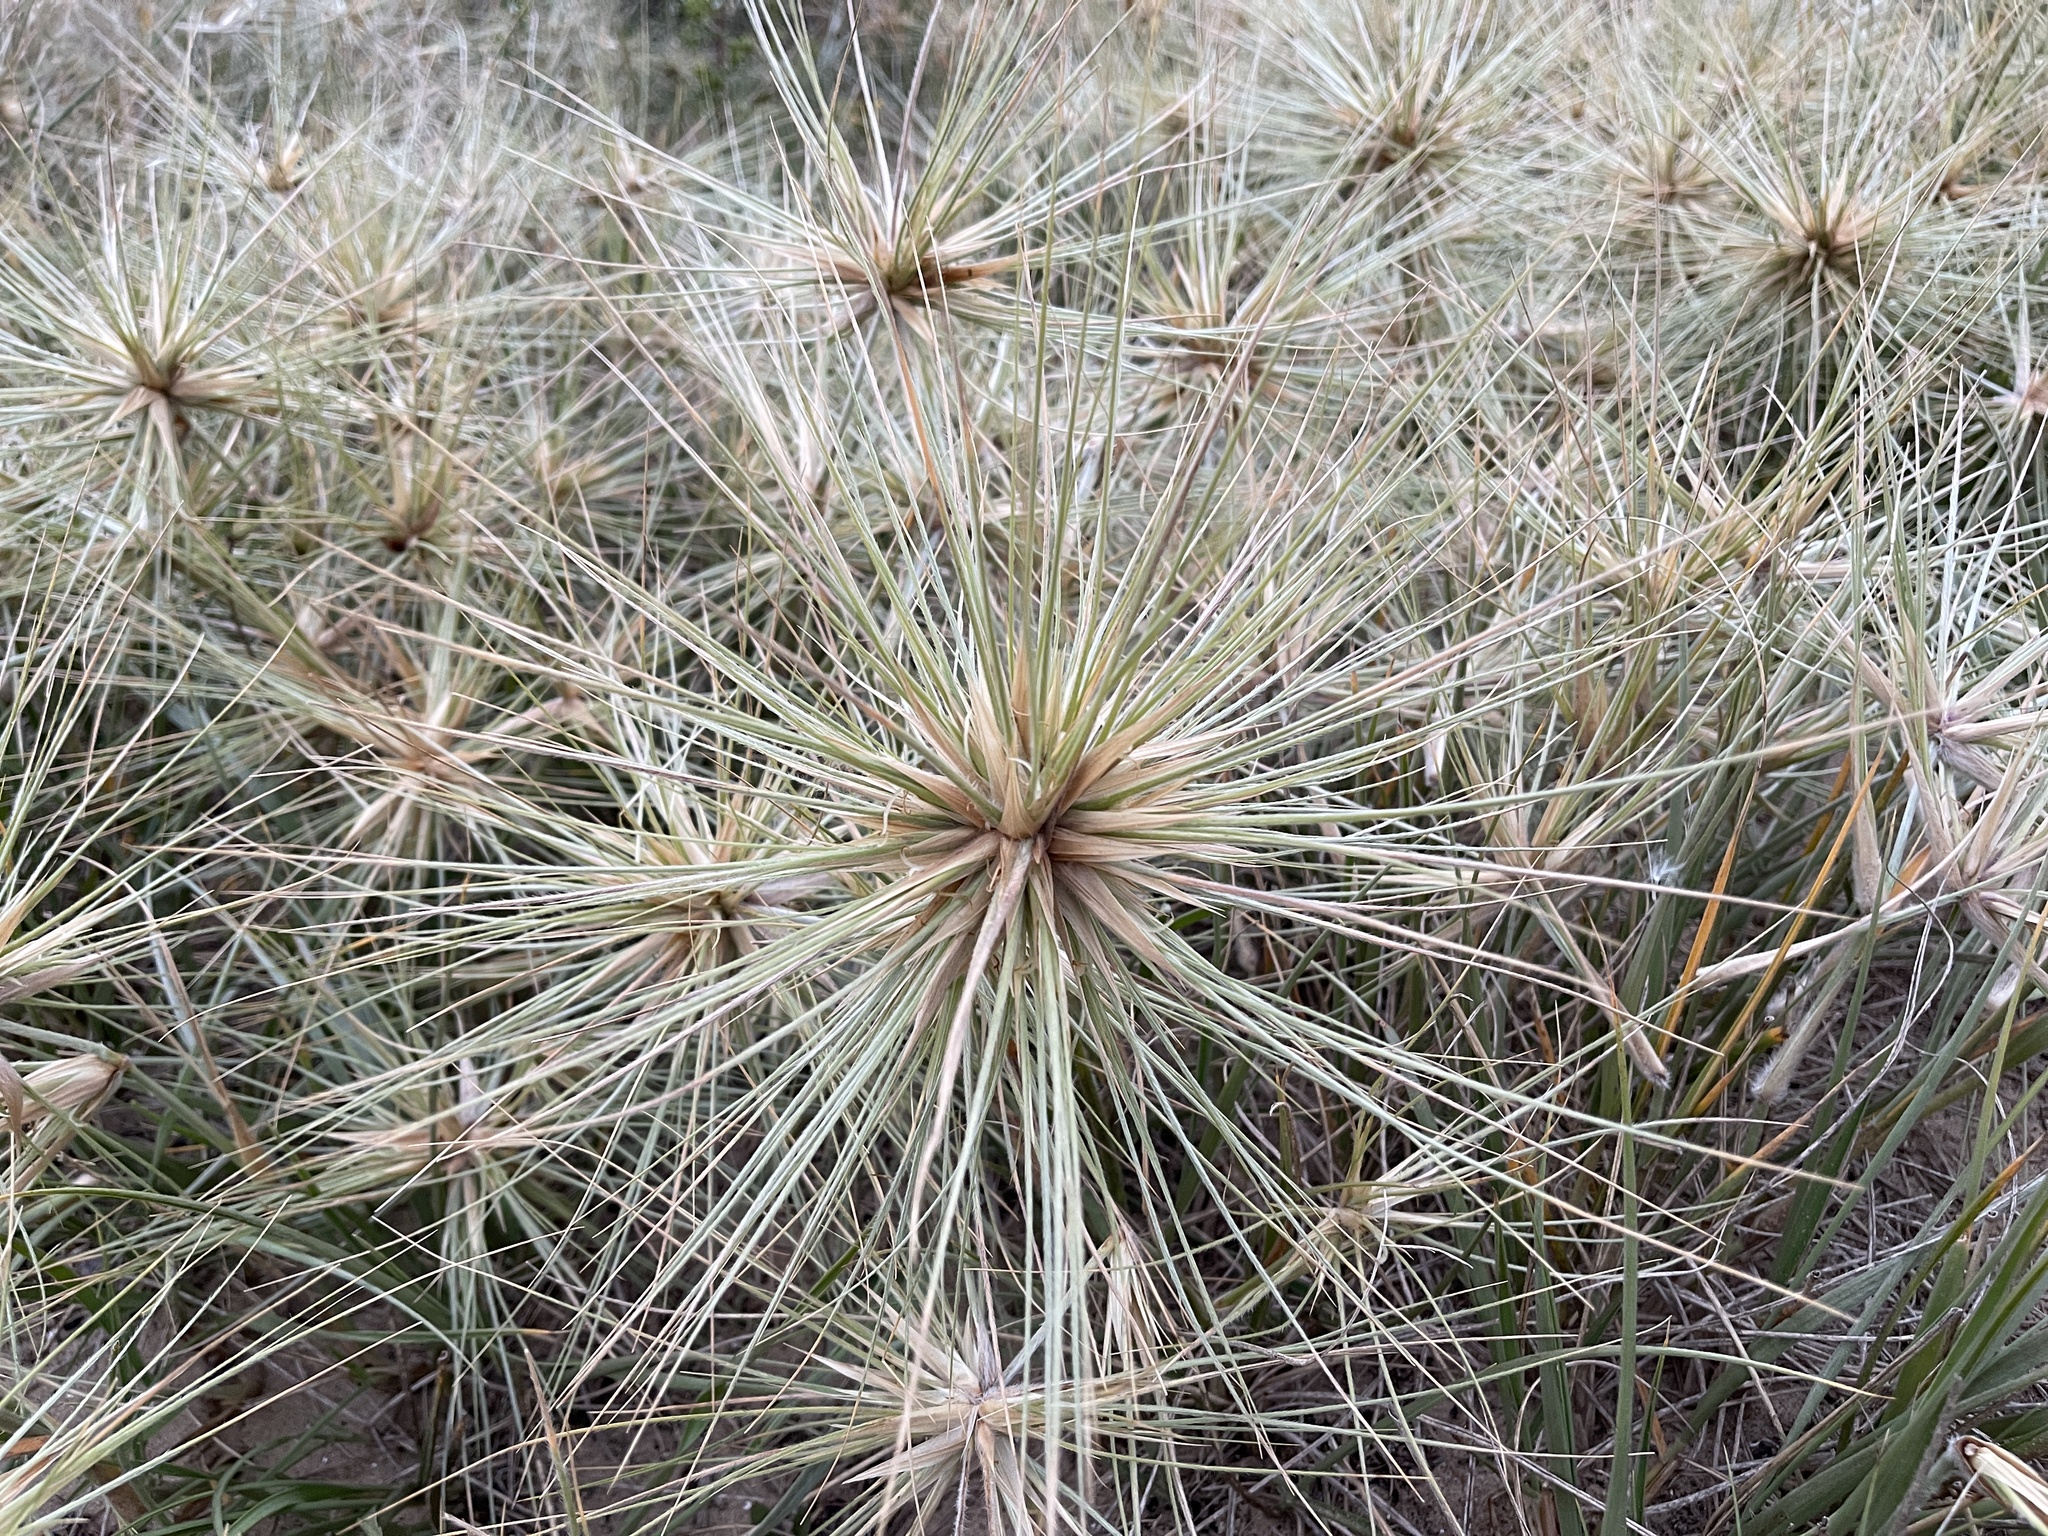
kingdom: Plantae
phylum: Tracheophyta
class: Liliopsida
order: Poales
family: Poaceae
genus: Spinifex
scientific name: Spinifex sericeus
